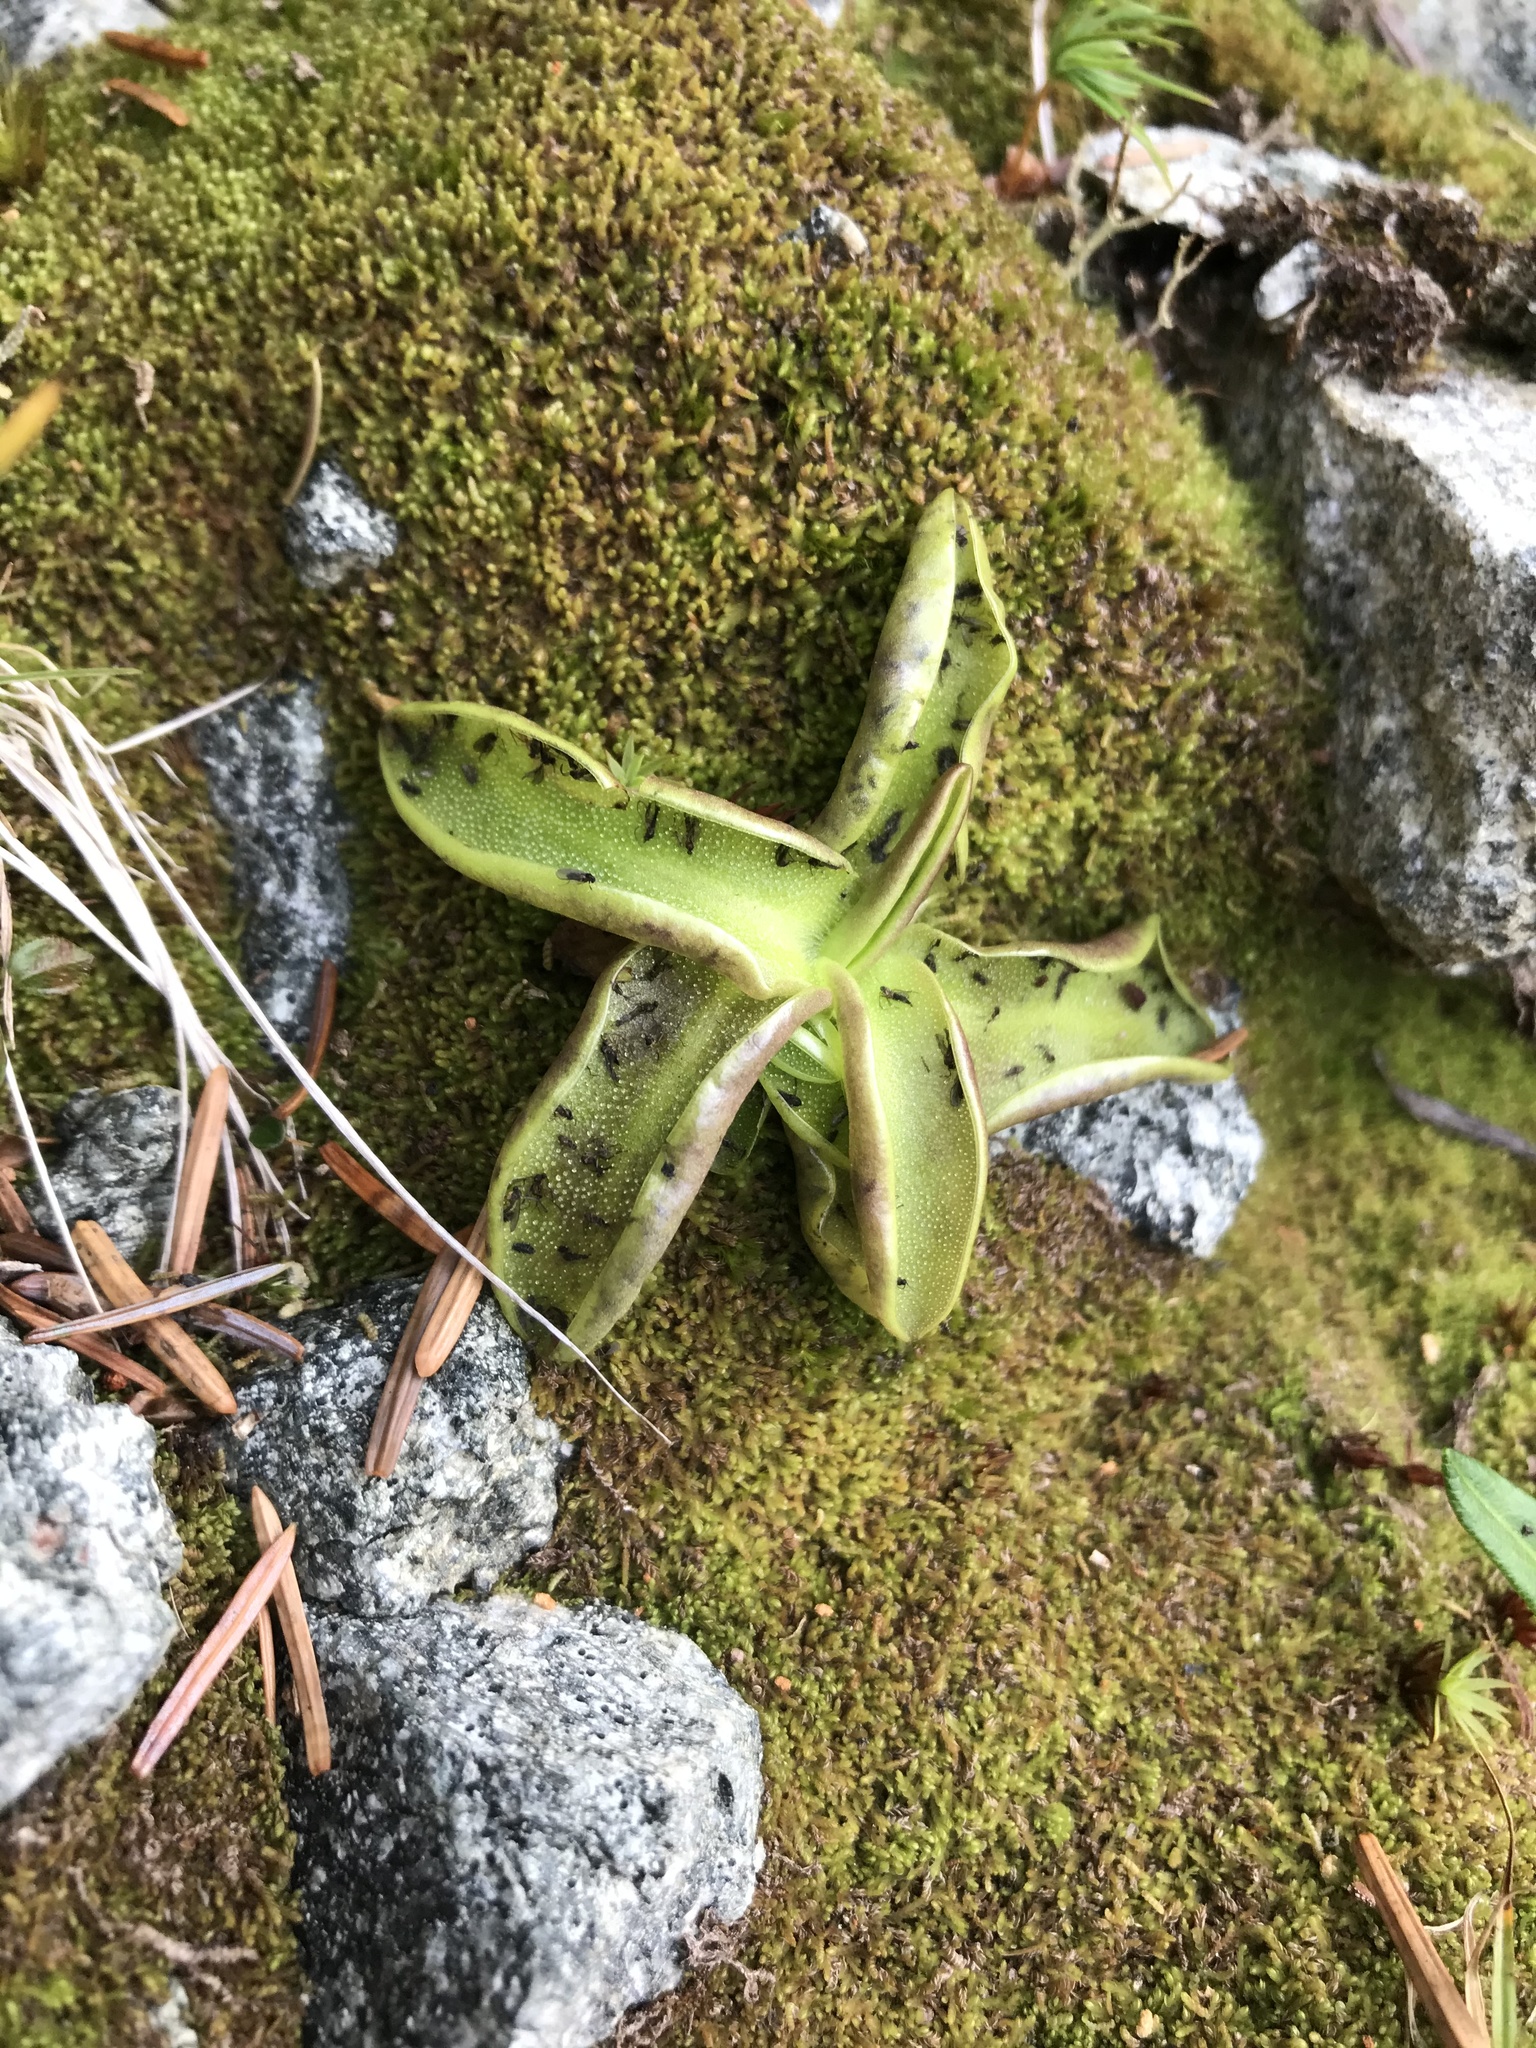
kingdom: Plantae
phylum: Tracheophyta
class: Magnoliopsida
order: Lamiales
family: Lentibulariaceae
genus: Pinguicula
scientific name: Pinguicula vulgaris
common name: Common butterwort
